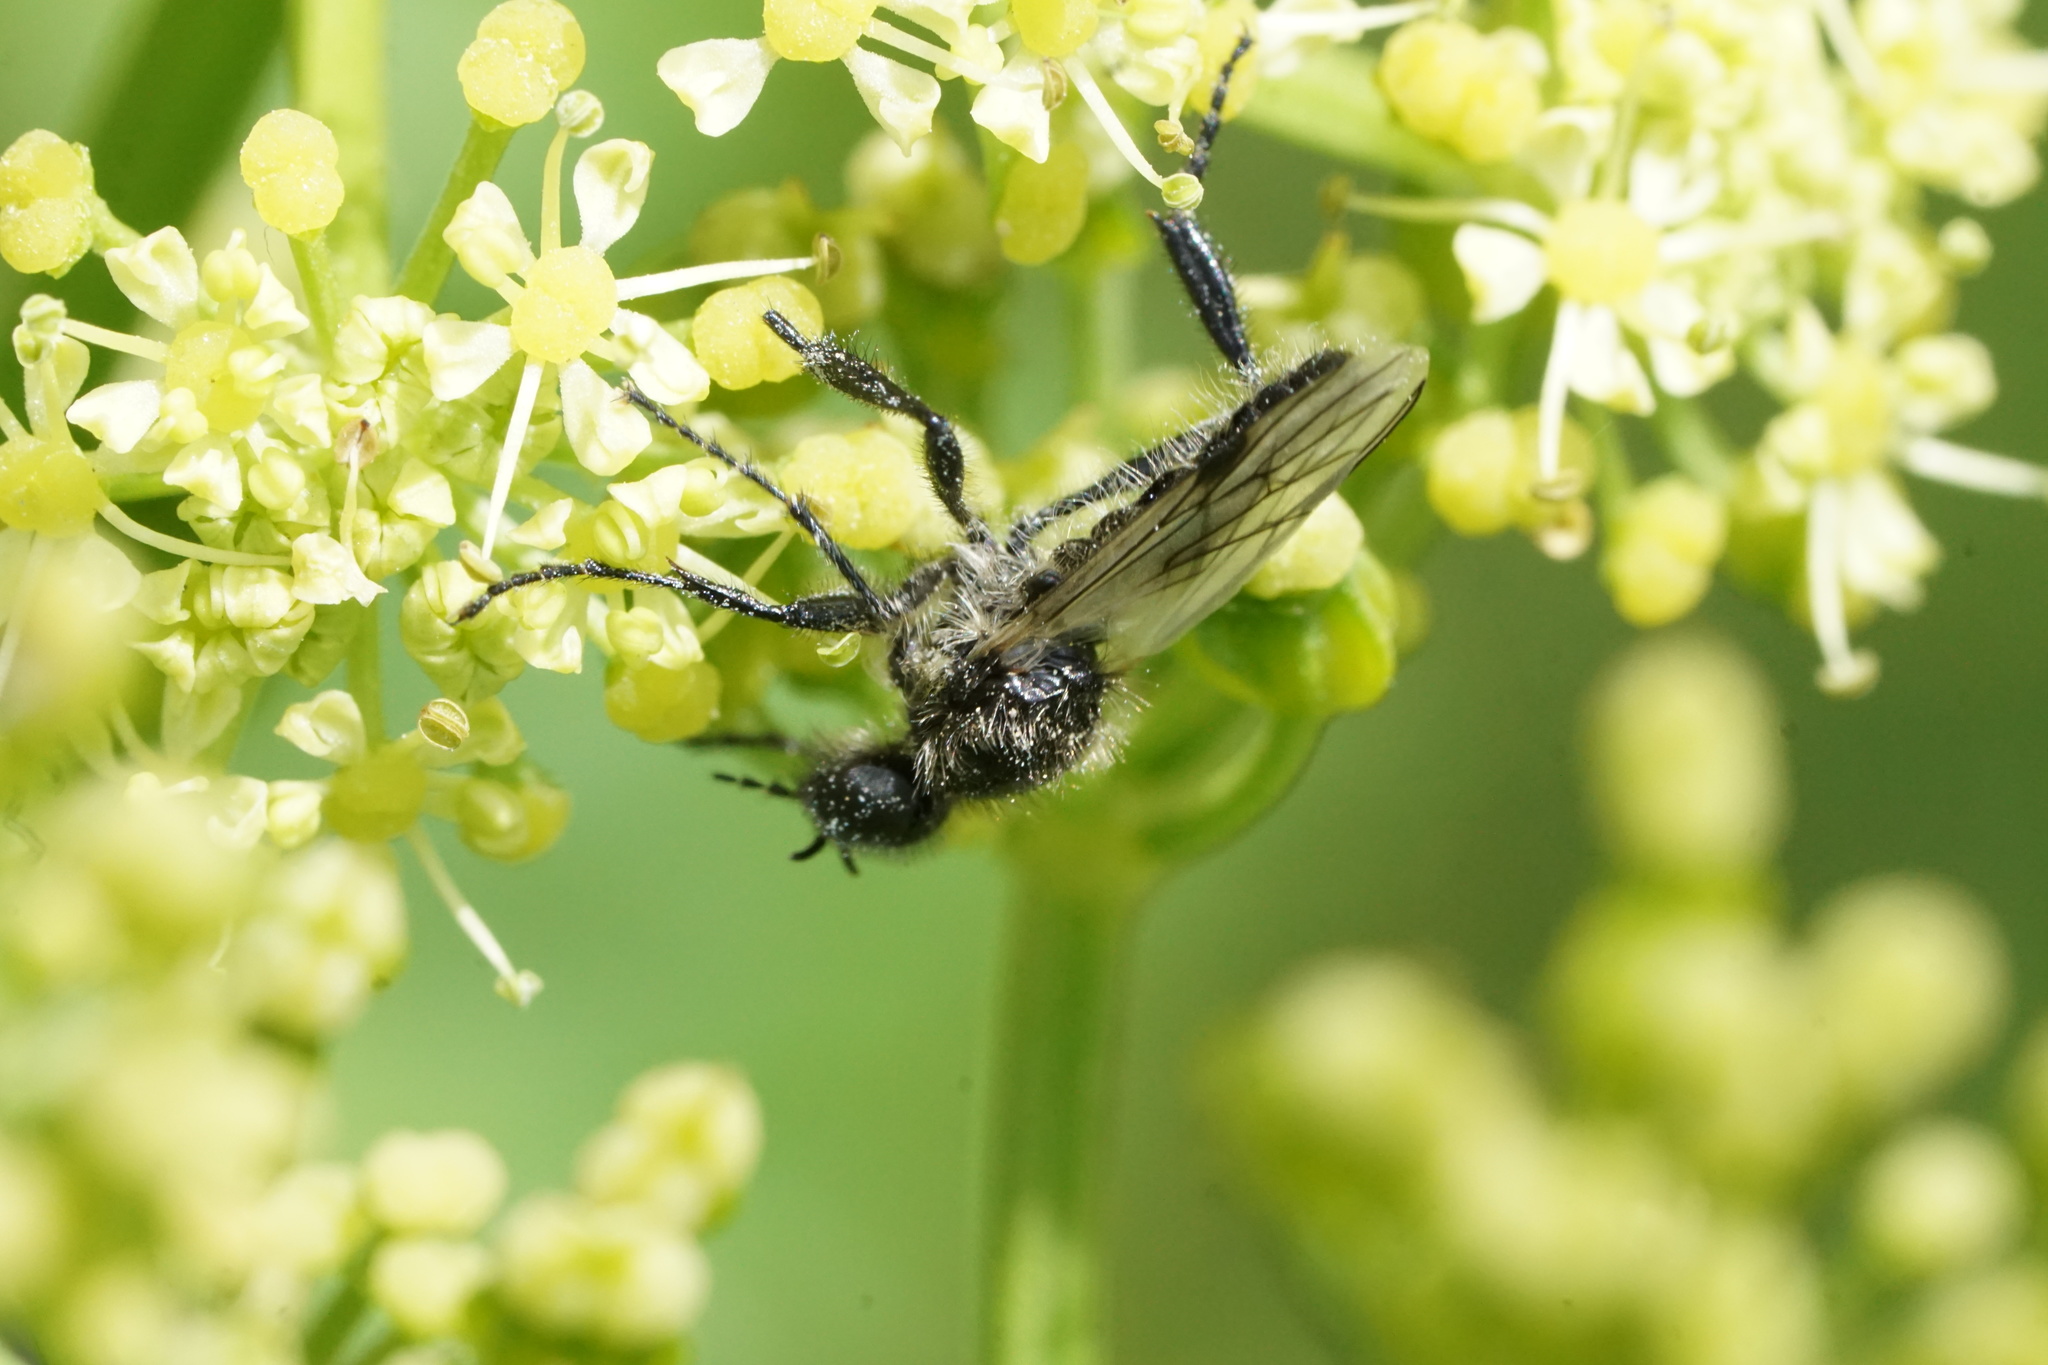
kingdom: Animalia
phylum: Arthropoda
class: Insecta
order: Diptera
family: Bibionidae
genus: Bibio
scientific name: Bibio albipennis
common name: White-winged march fly
